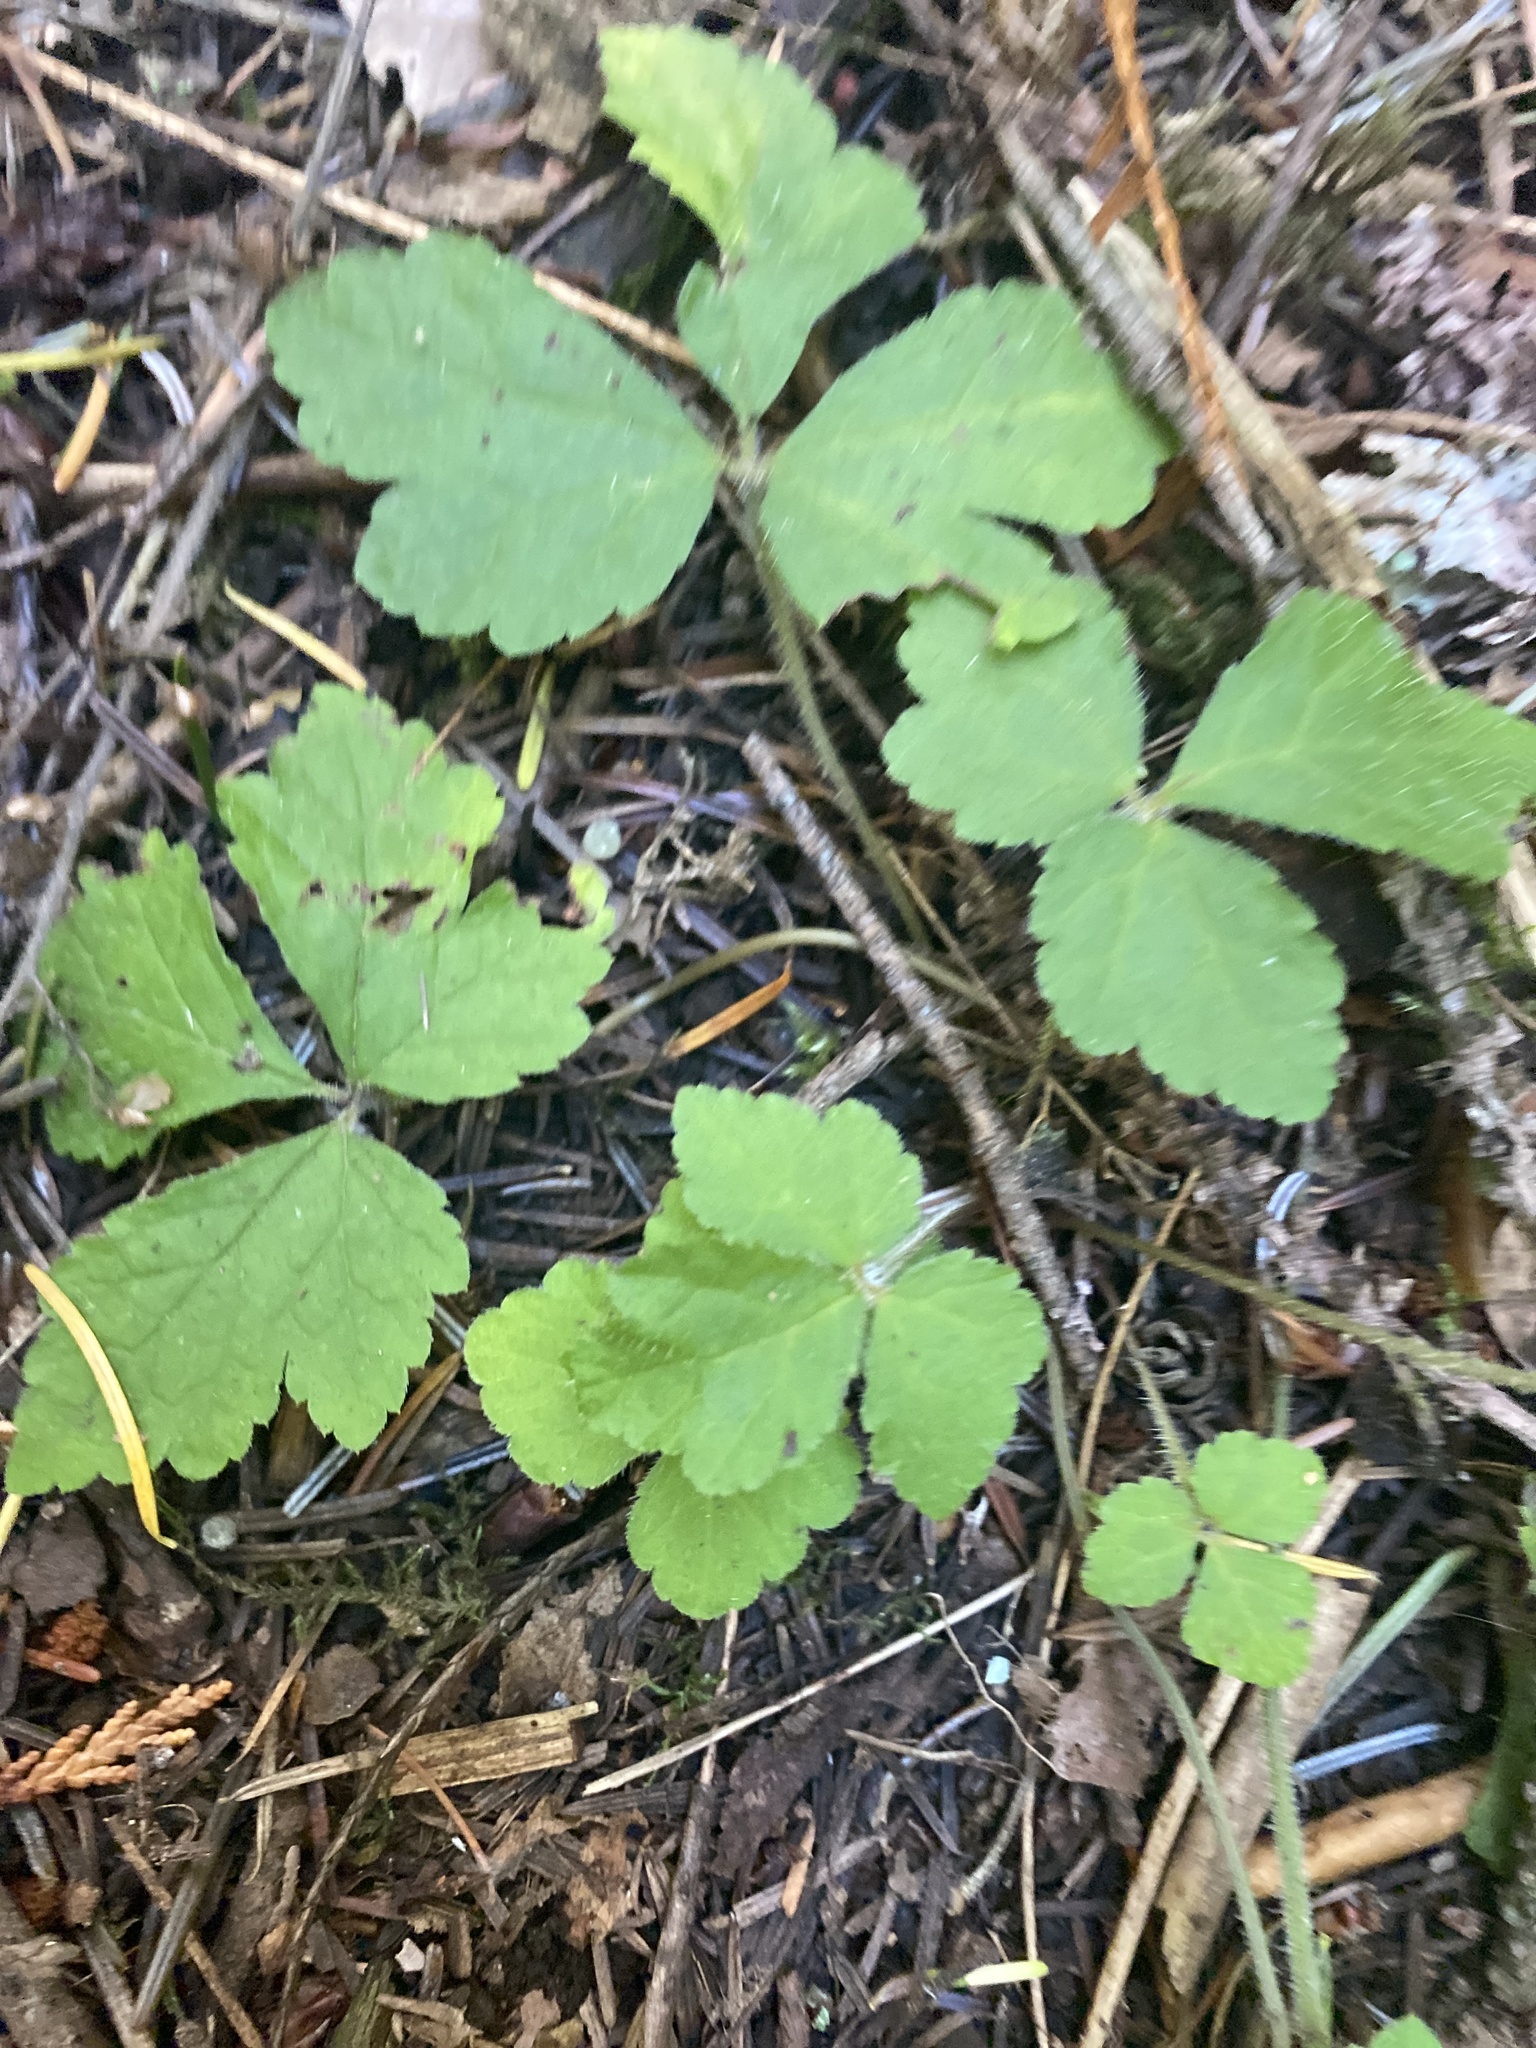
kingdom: Plantae
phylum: Tracheophyta
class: Magnoliopsida
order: Saxifragales
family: Saxifragaceae
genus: Tiarella
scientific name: Tiarella trifoliata
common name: Sugar-scoop
